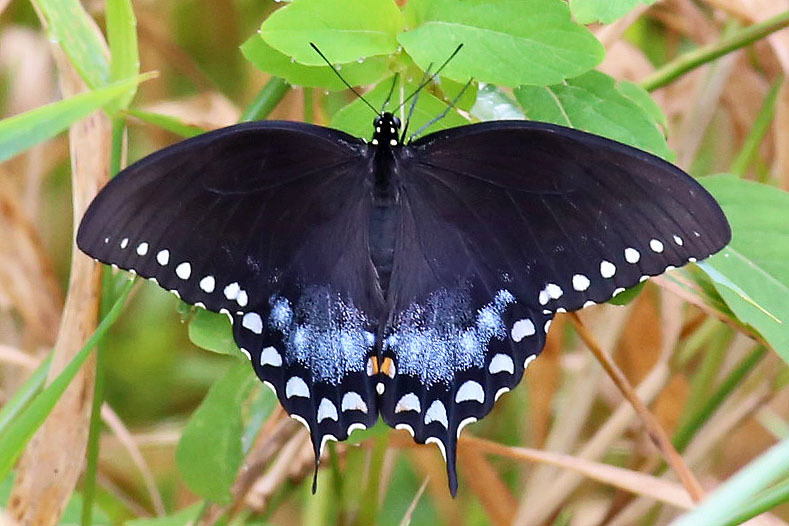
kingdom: Animalia
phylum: Arthropoda
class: Insecta
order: Lepidoptera
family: Papilionidae
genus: Papilio
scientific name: Papilio troilus
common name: Spicebush swallowtail
